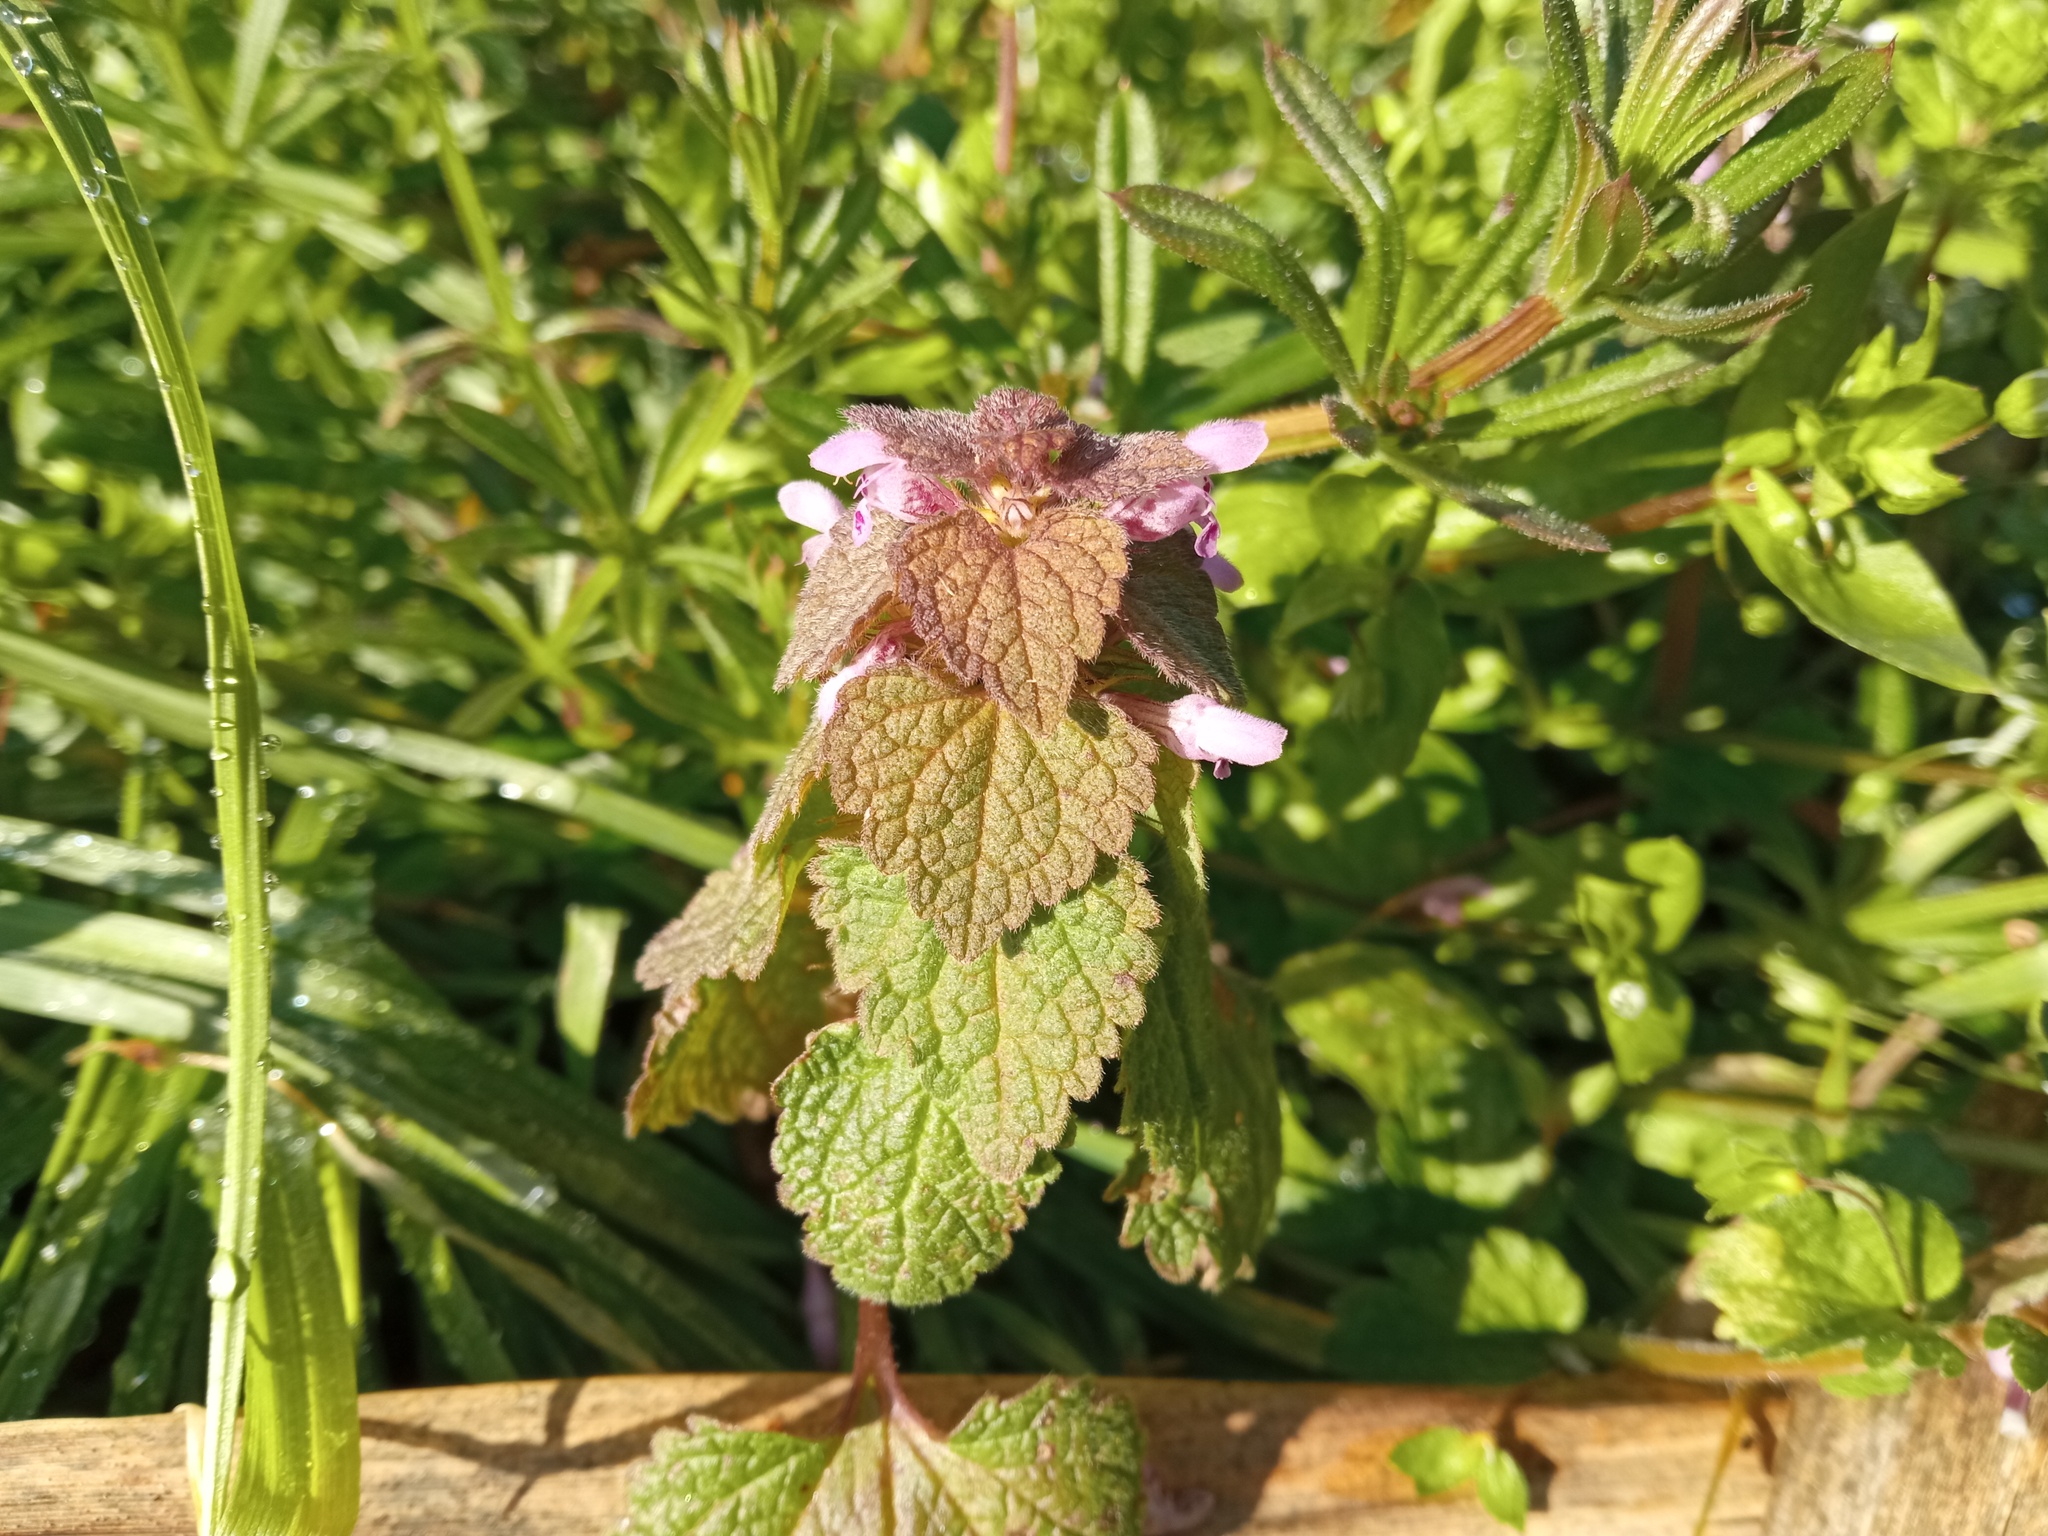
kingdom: Plantae
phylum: Tracheophyta
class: Magnoliopsida
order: Lamiales
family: Lamiaceae
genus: Lamium
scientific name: Lamium purpureum
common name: Red dead-nettle
